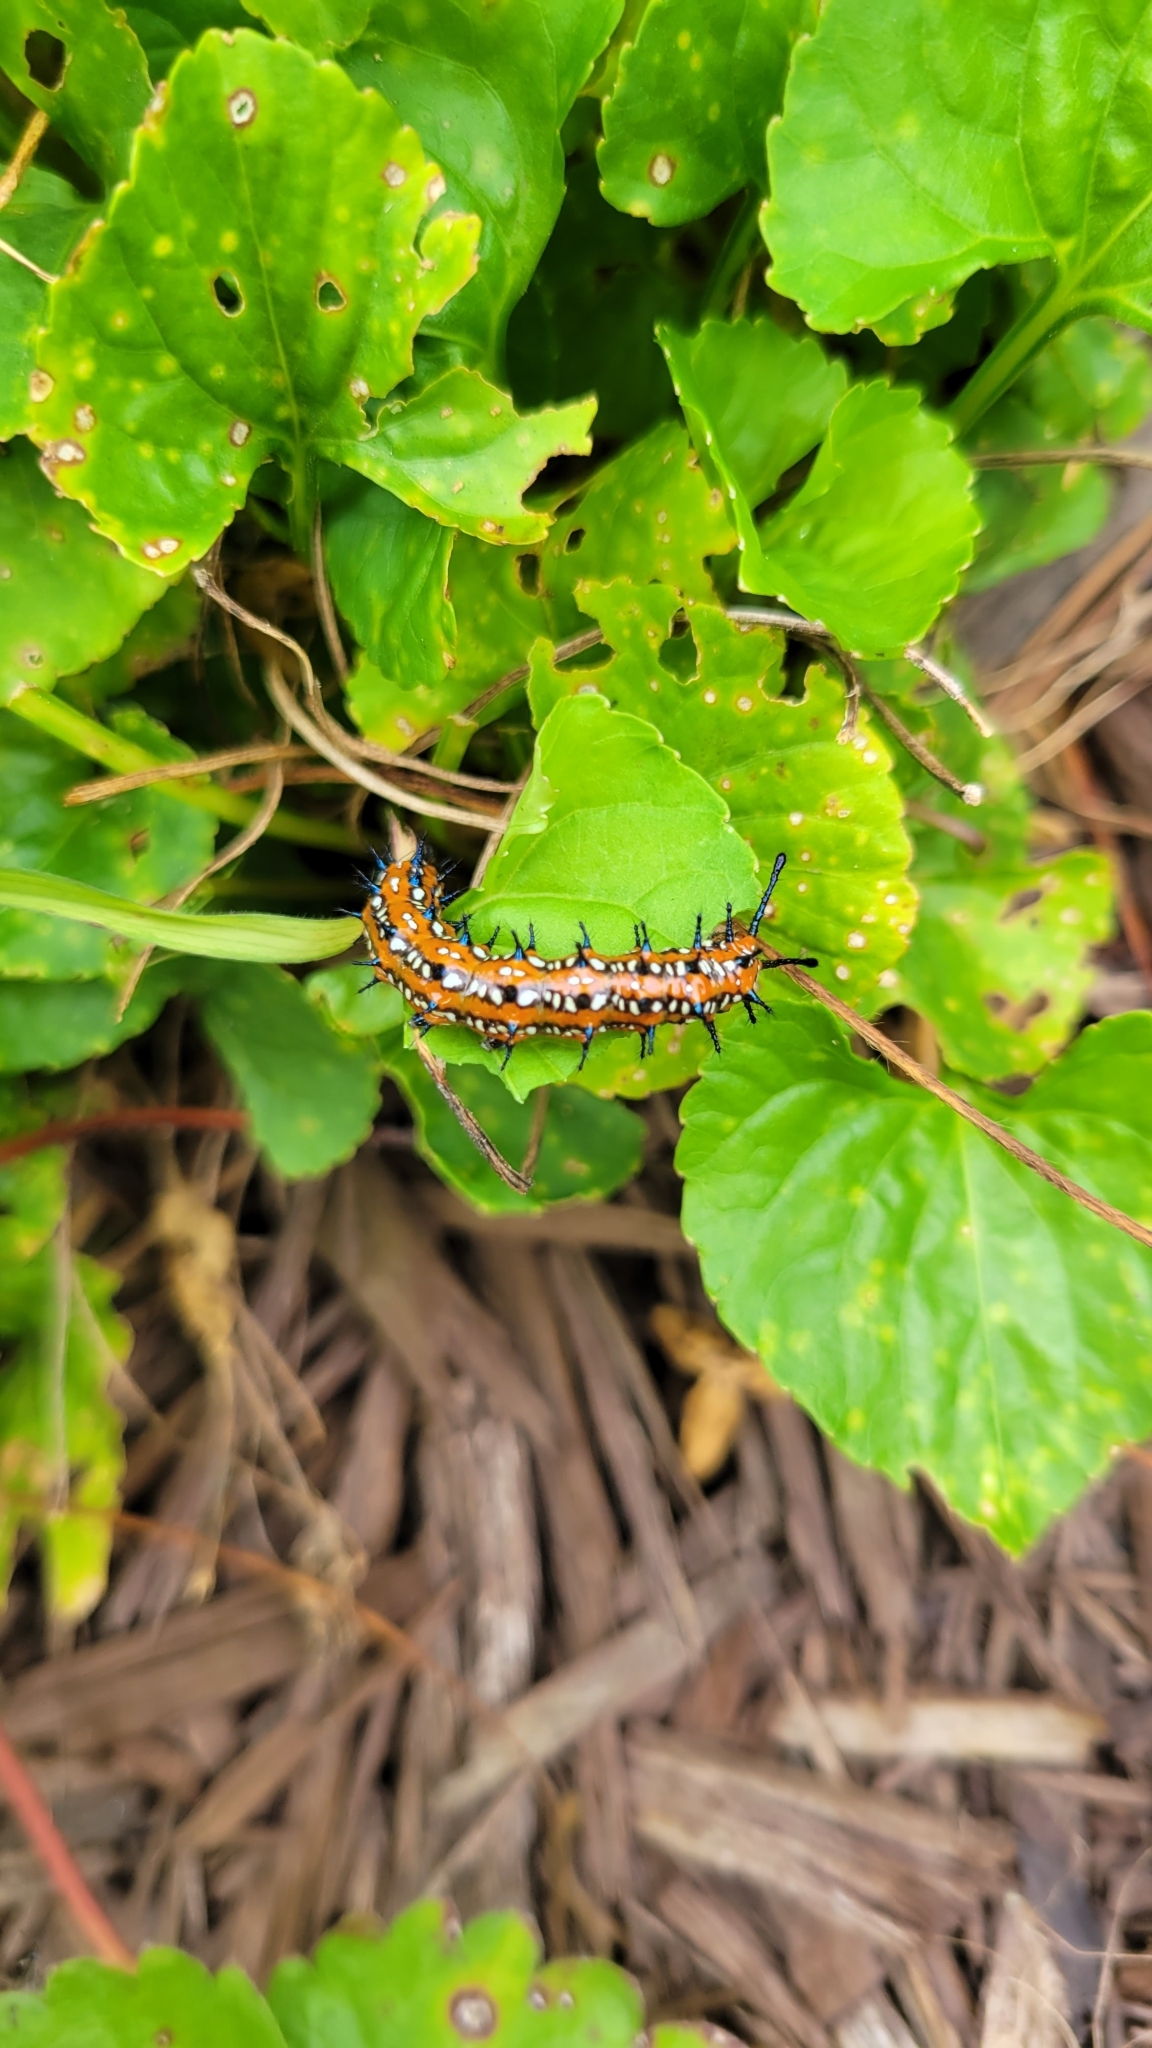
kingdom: Animalia
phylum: Arthropoda
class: Insecta
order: Lepidoptera
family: Nymphalidae
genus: Euptoieta
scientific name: Euptoieta claudia
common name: Variegated fritillary
